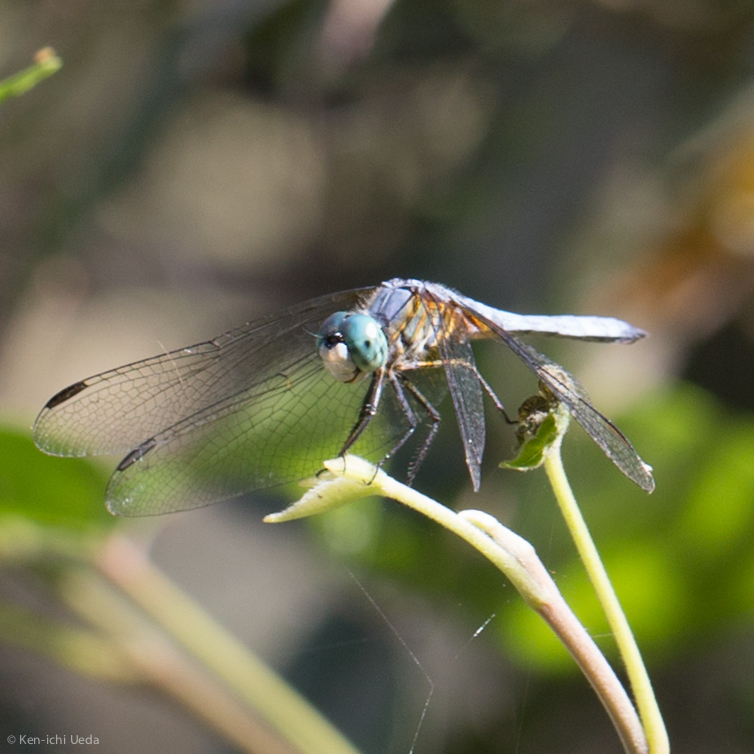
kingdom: Animalia
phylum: Arthropoda
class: Insecta
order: Odonata
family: Libellulidae
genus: Pachydiplax
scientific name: Pachydiplax longipennis
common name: Blue dasher
